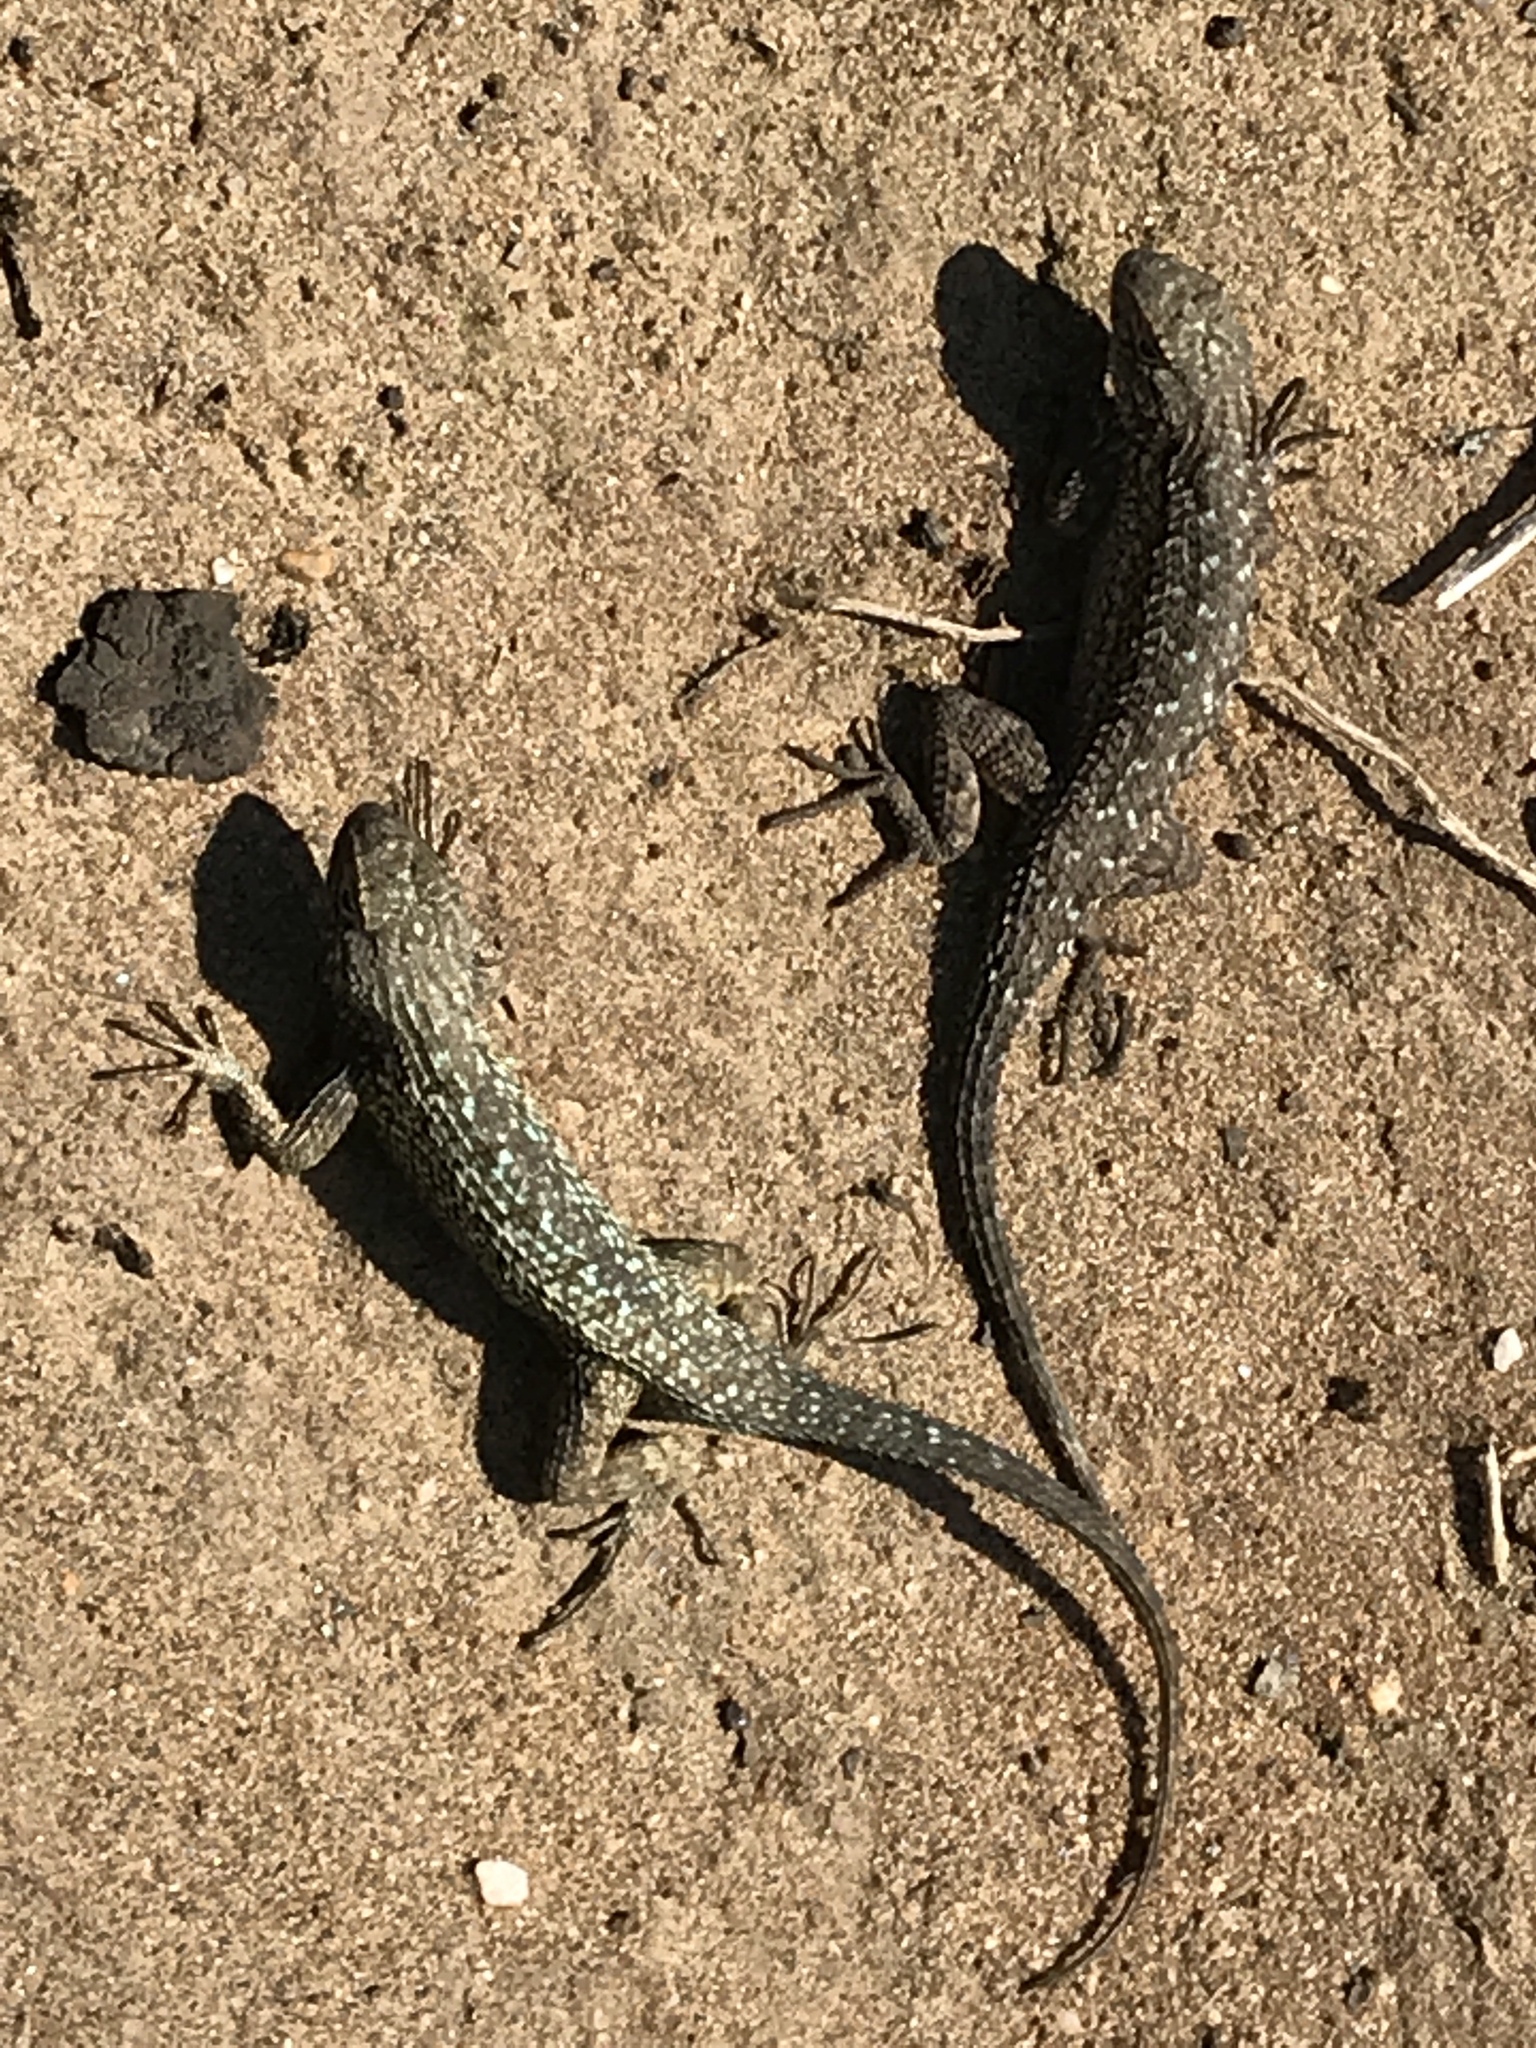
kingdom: Animalia
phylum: Chordata
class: Squamata
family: Phrynosomatidae
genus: Sceloporus
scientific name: Sceloporus occidentalis
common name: Western fence lizard
